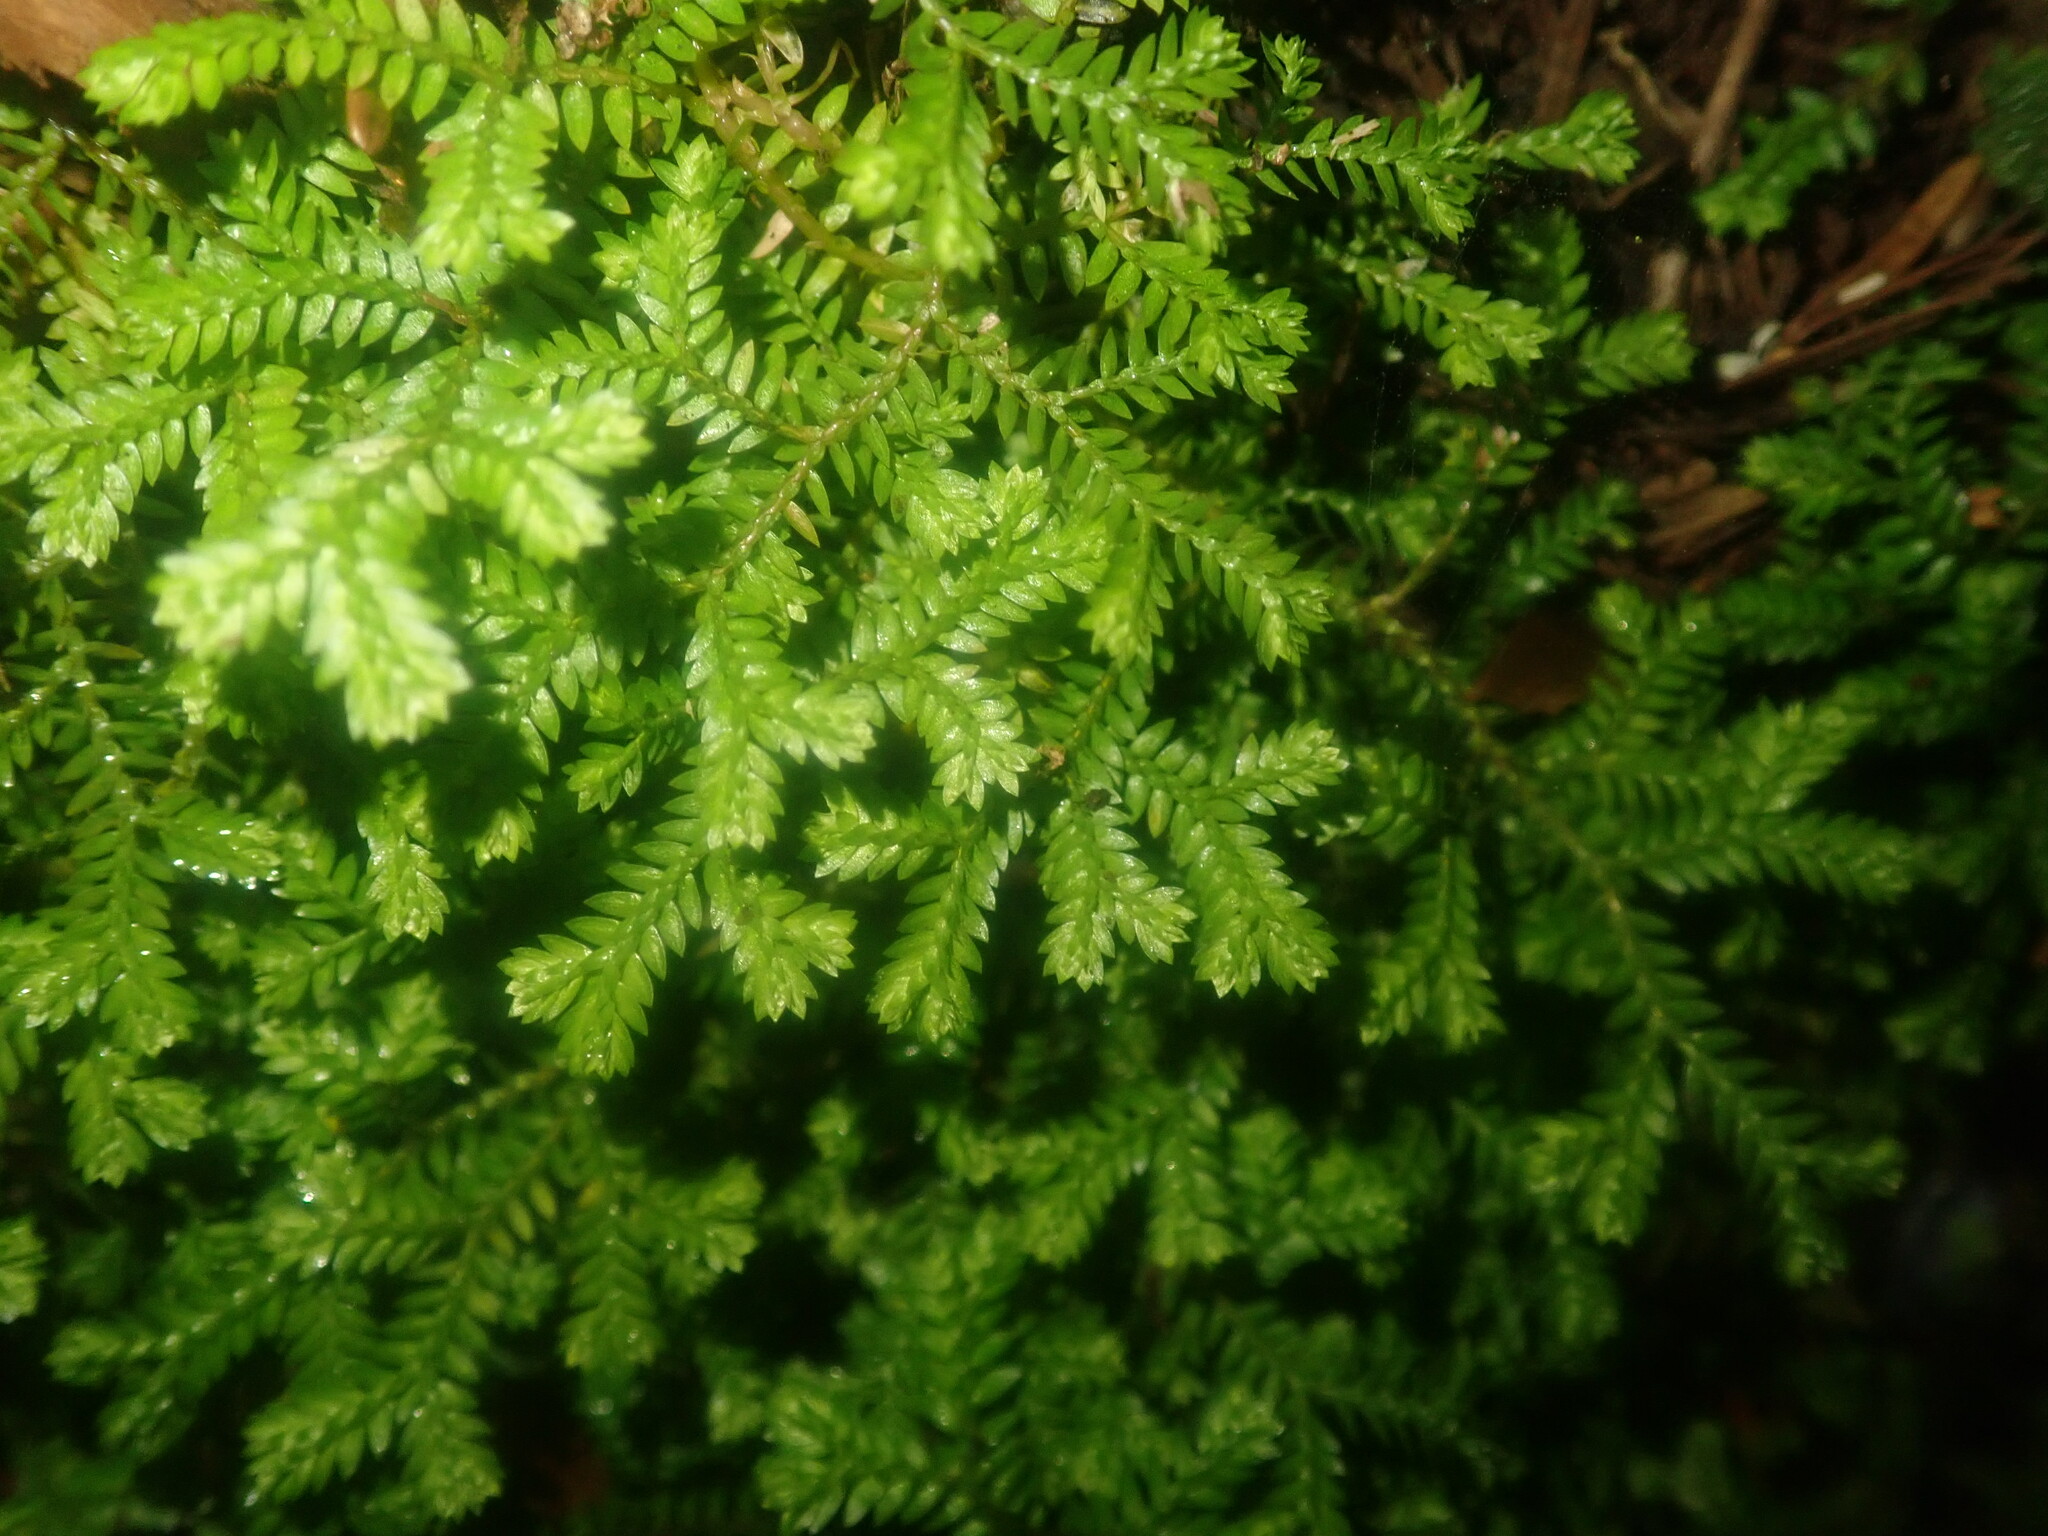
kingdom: Plantae
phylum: Tracheophyta
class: Lycopodiopsida
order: Selaginellales
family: Selaginellaceae
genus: Selaginella
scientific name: Selaginella kraussiana
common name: Krauss' spikemoss
